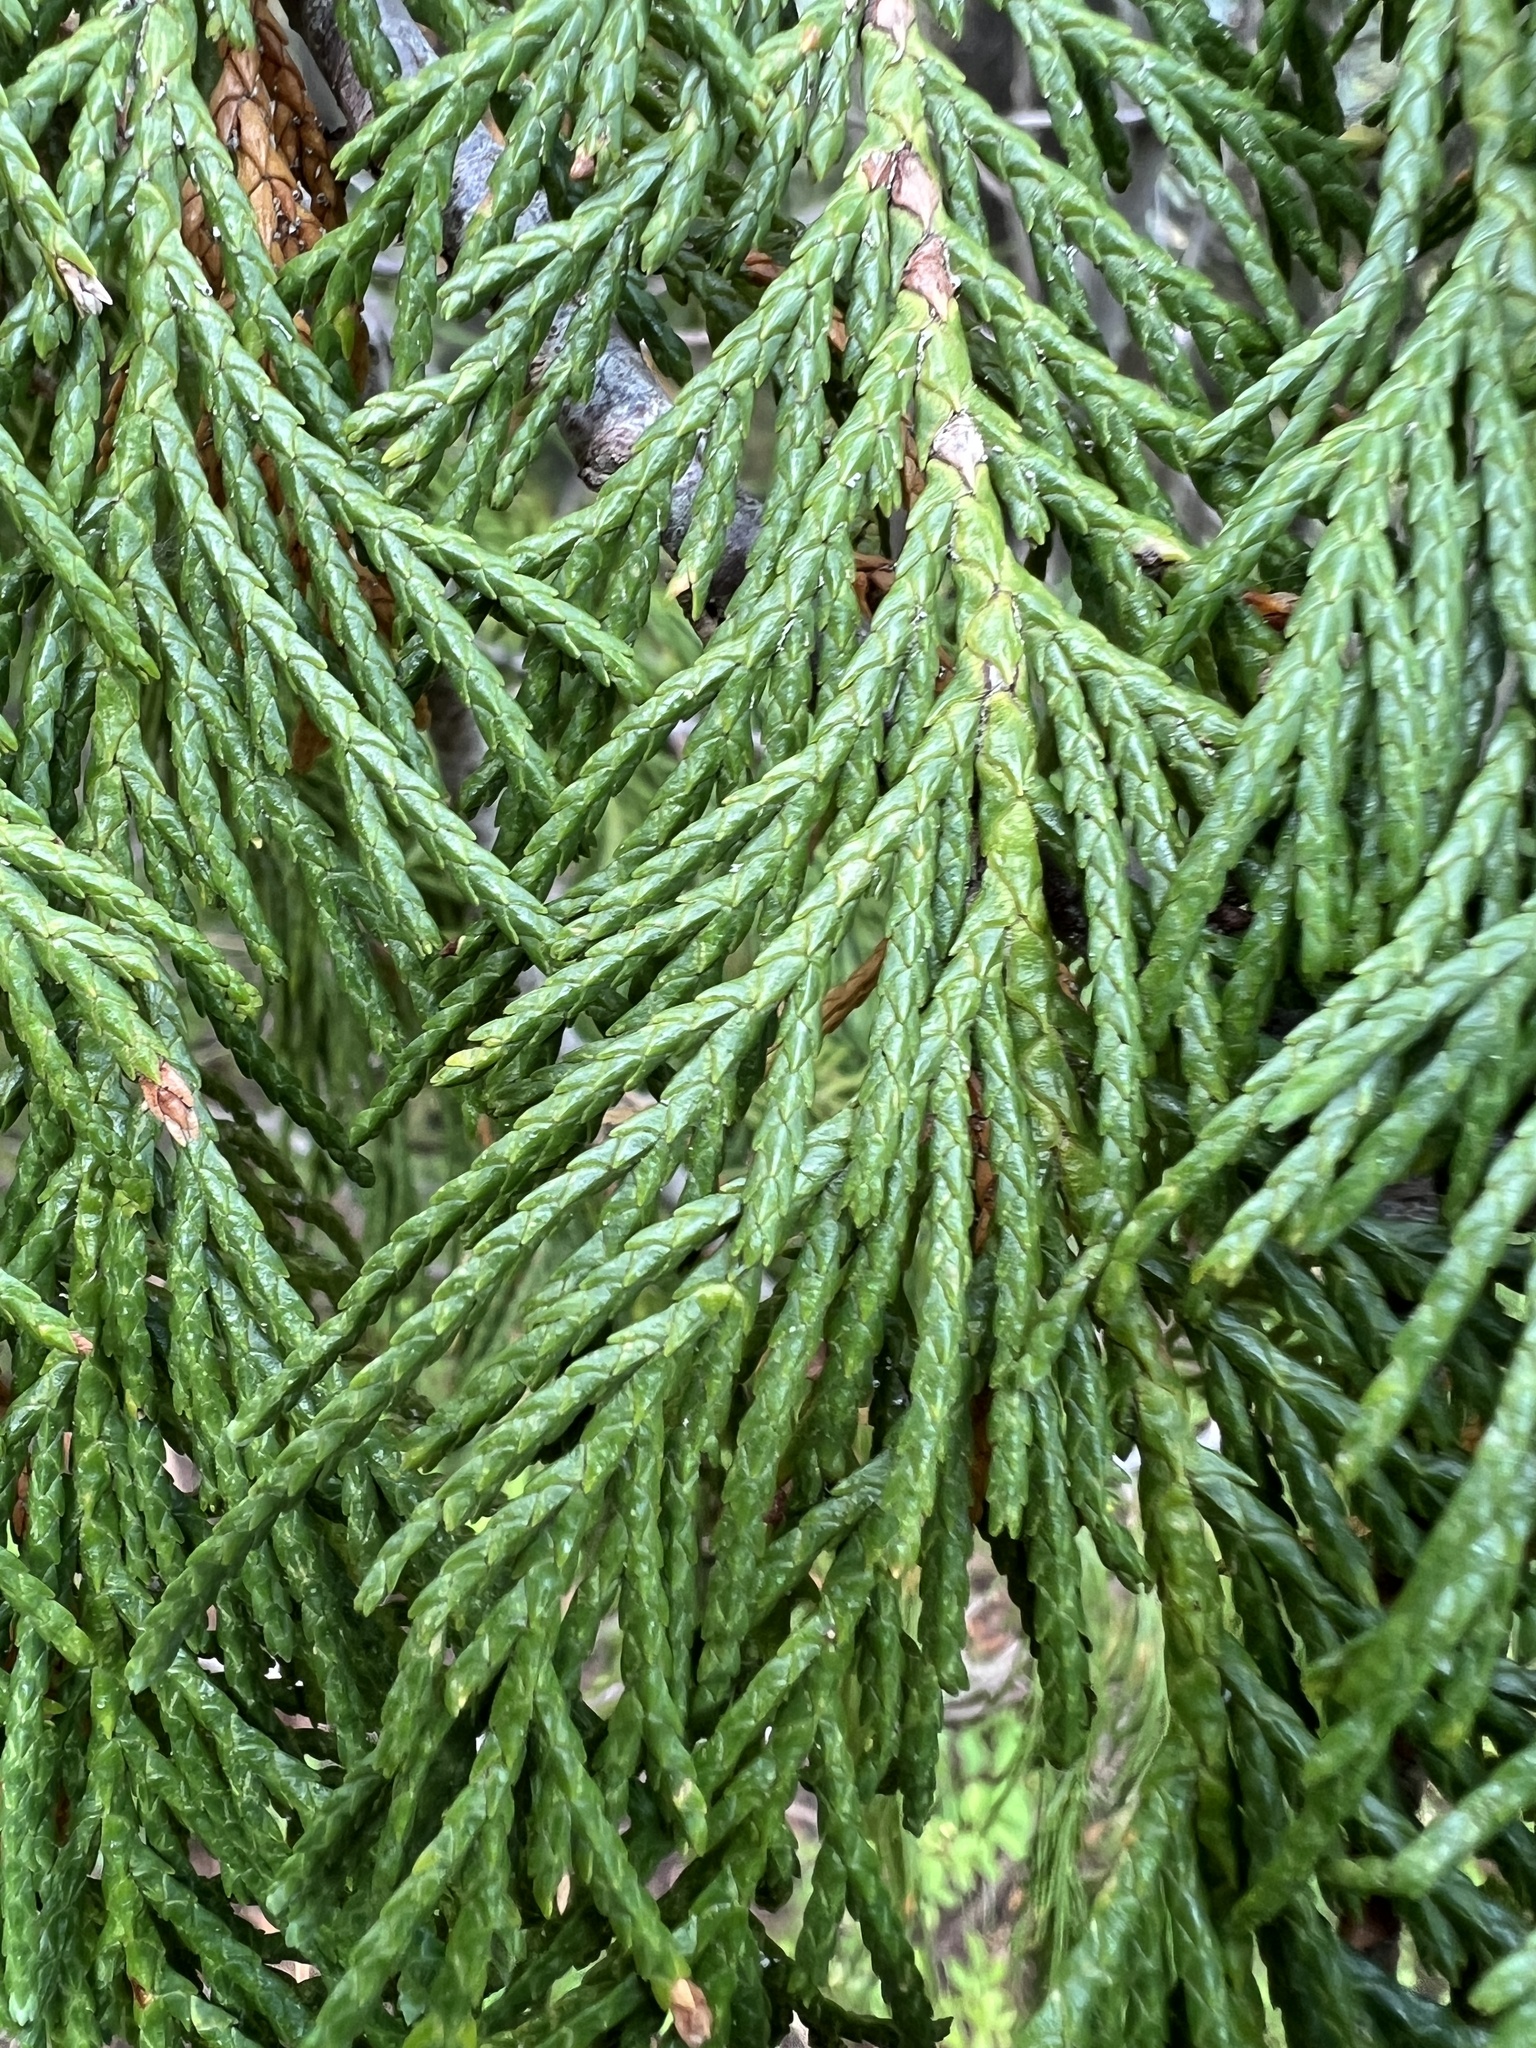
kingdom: Plantae
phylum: Tracheophyta
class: Pinopsida
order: Pinales
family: Cupressaceae
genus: Xanthocyparis
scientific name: Xanthocyparis nootkatensis
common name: Nootka cypress
